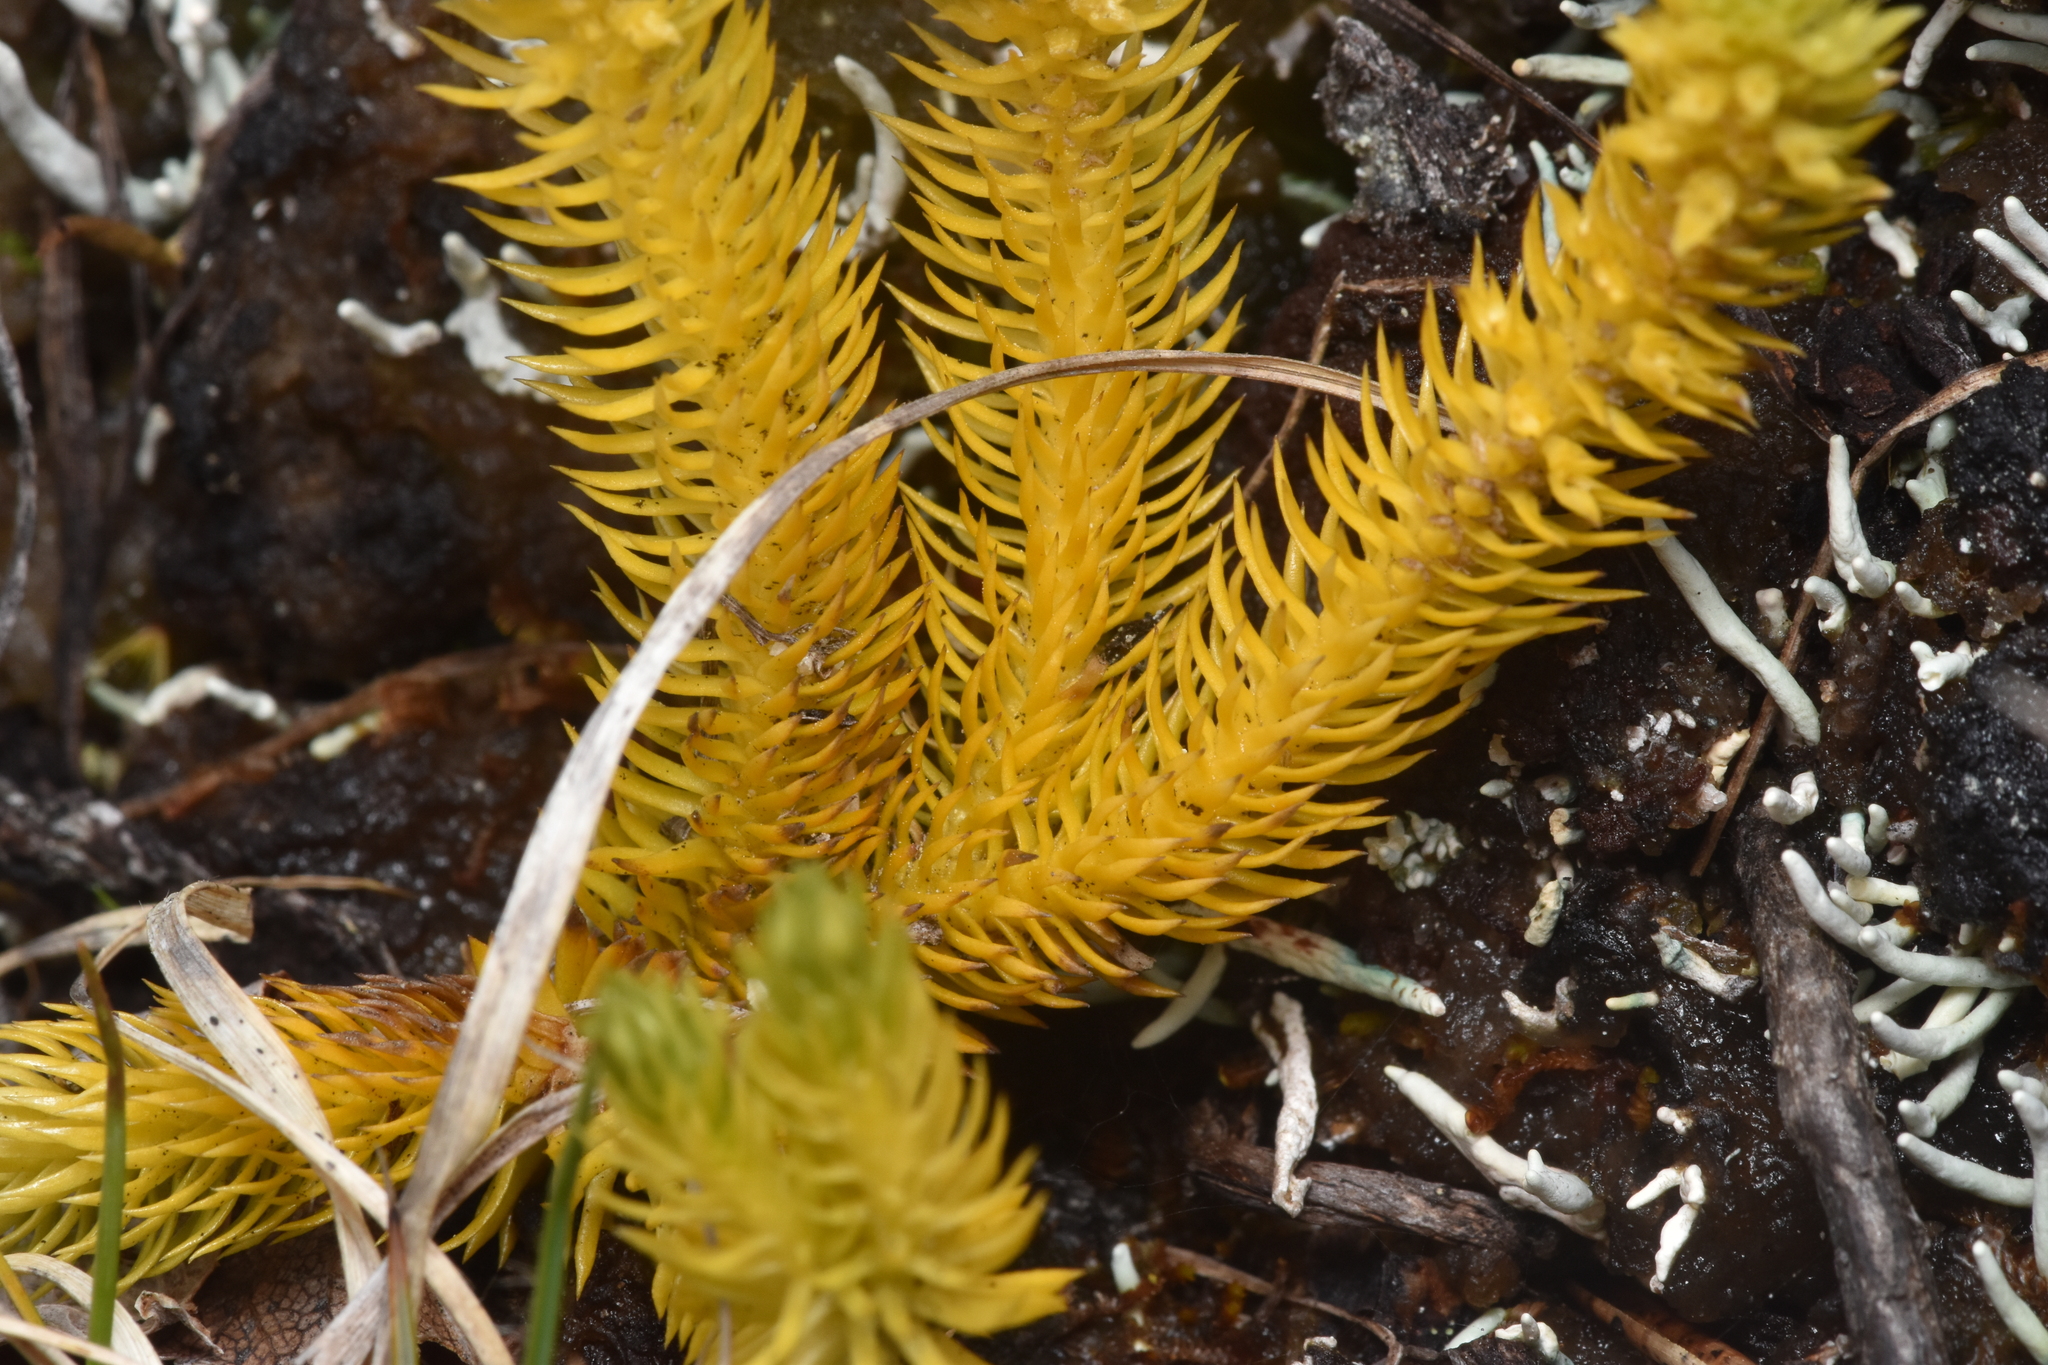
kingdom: Plantae
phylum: Tracheophyta
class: Lycopodiopsida
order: Lycopodiales
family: Lycopodiaceae
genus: Huperzia
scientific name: Huperzia continentalis
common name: Continental firmoss
